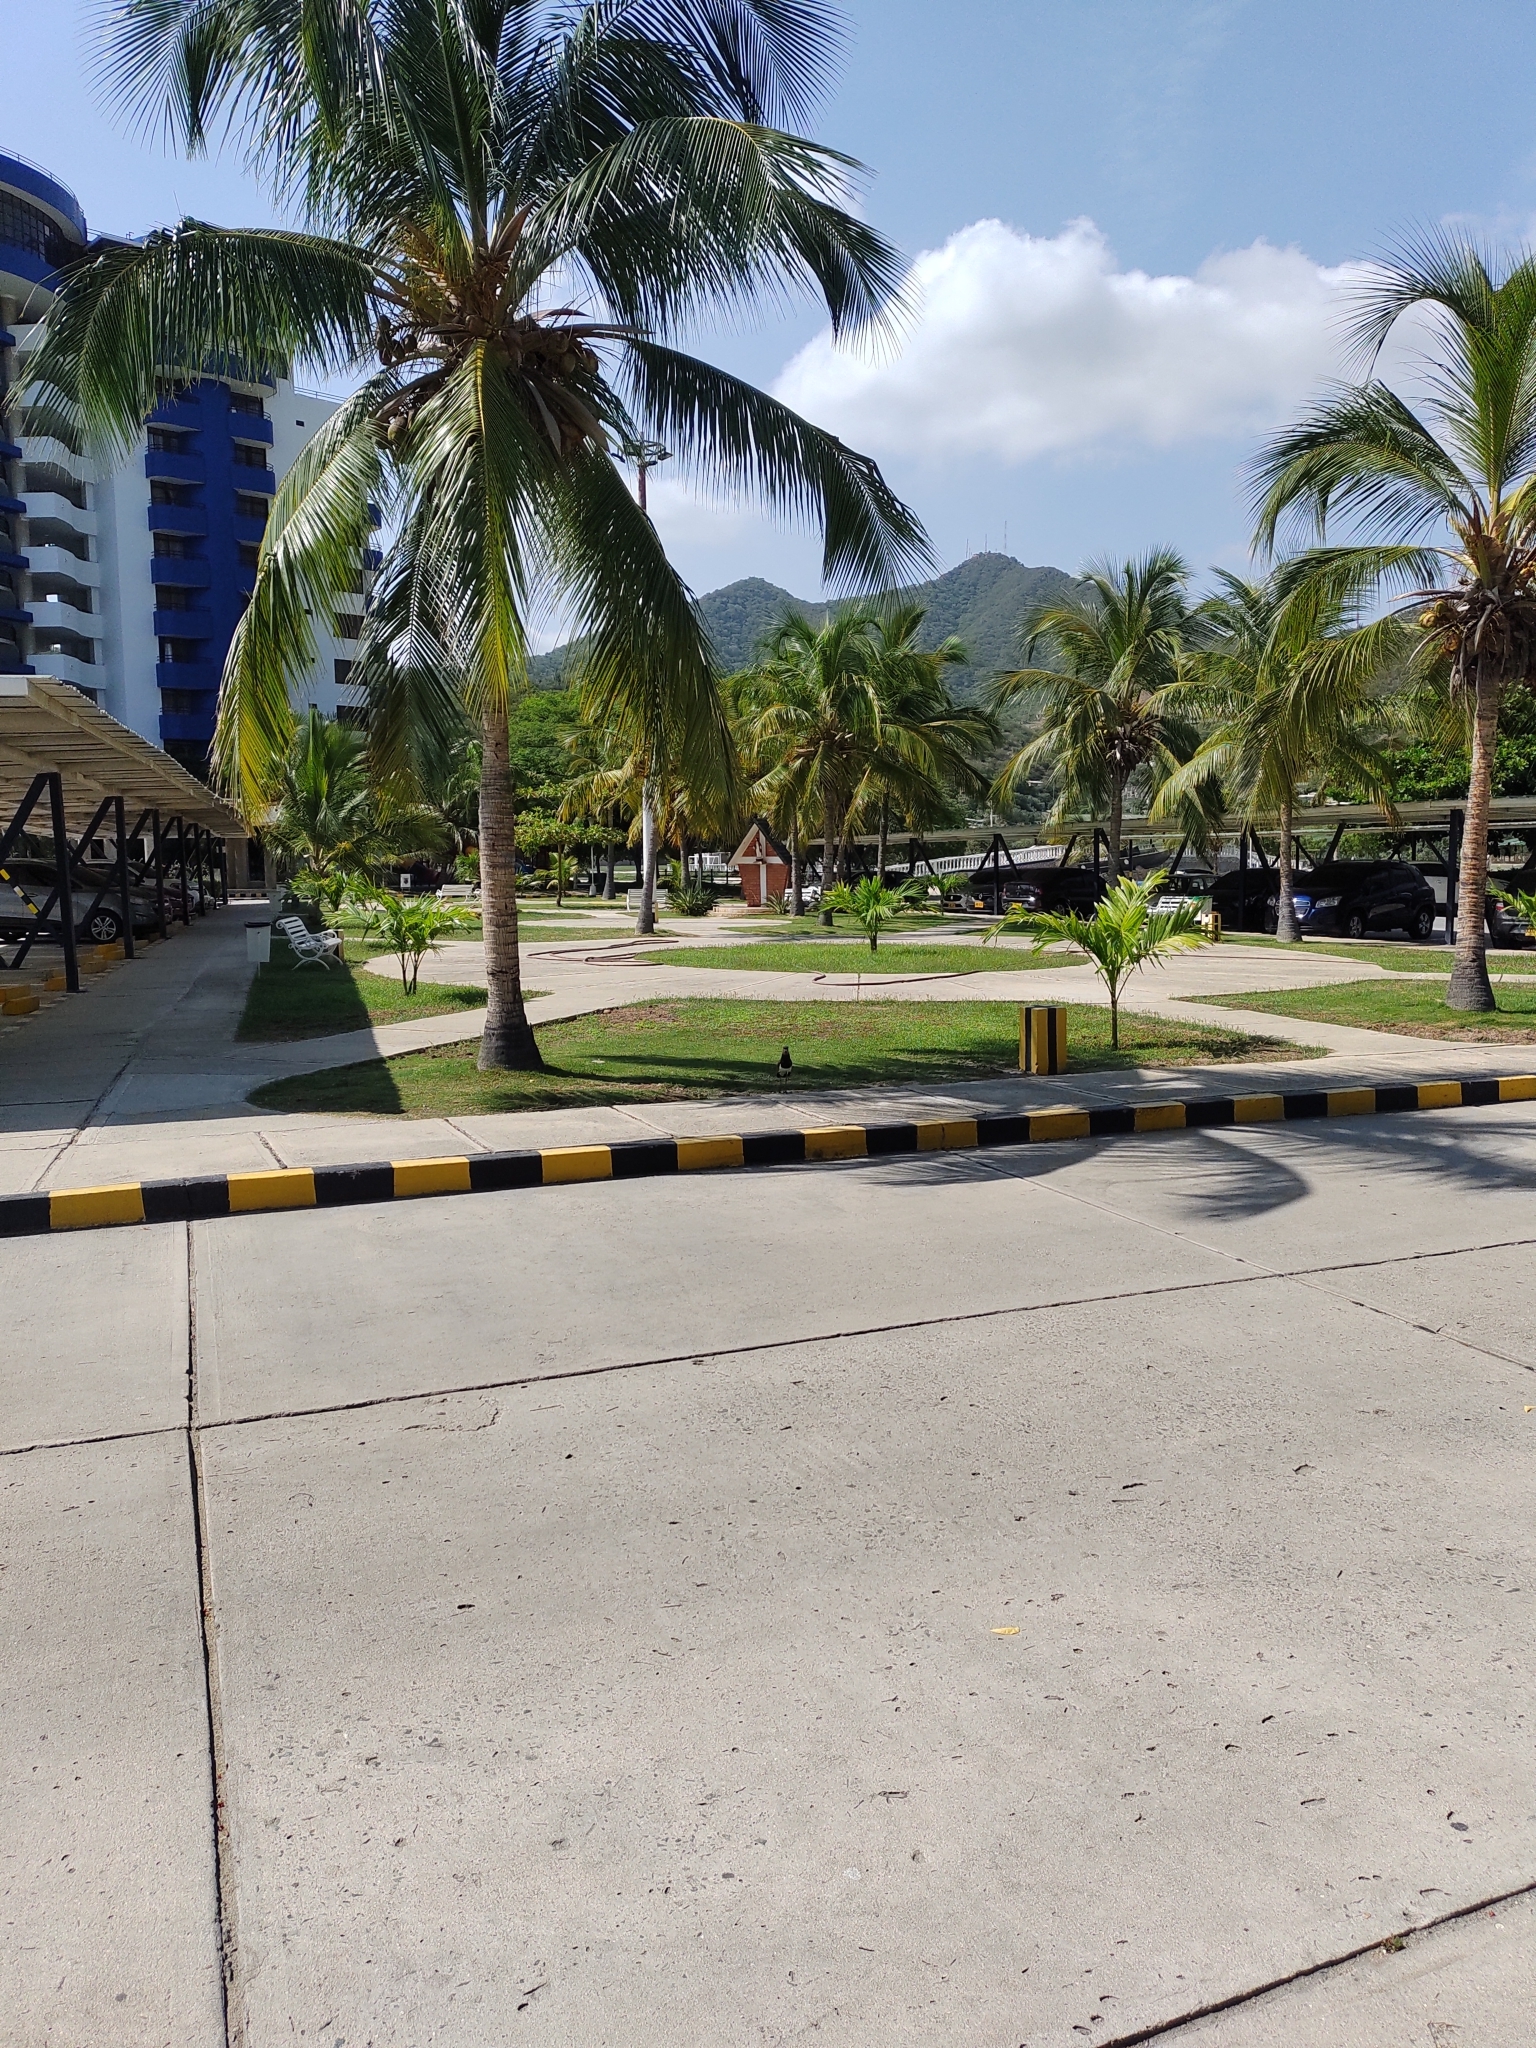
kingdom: Animalia
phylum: Chordata
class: Aves
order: Charadriiformes
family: Charadriidae
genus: Vanellus
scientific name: Vanellus chilensis
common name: Southern lapwing
